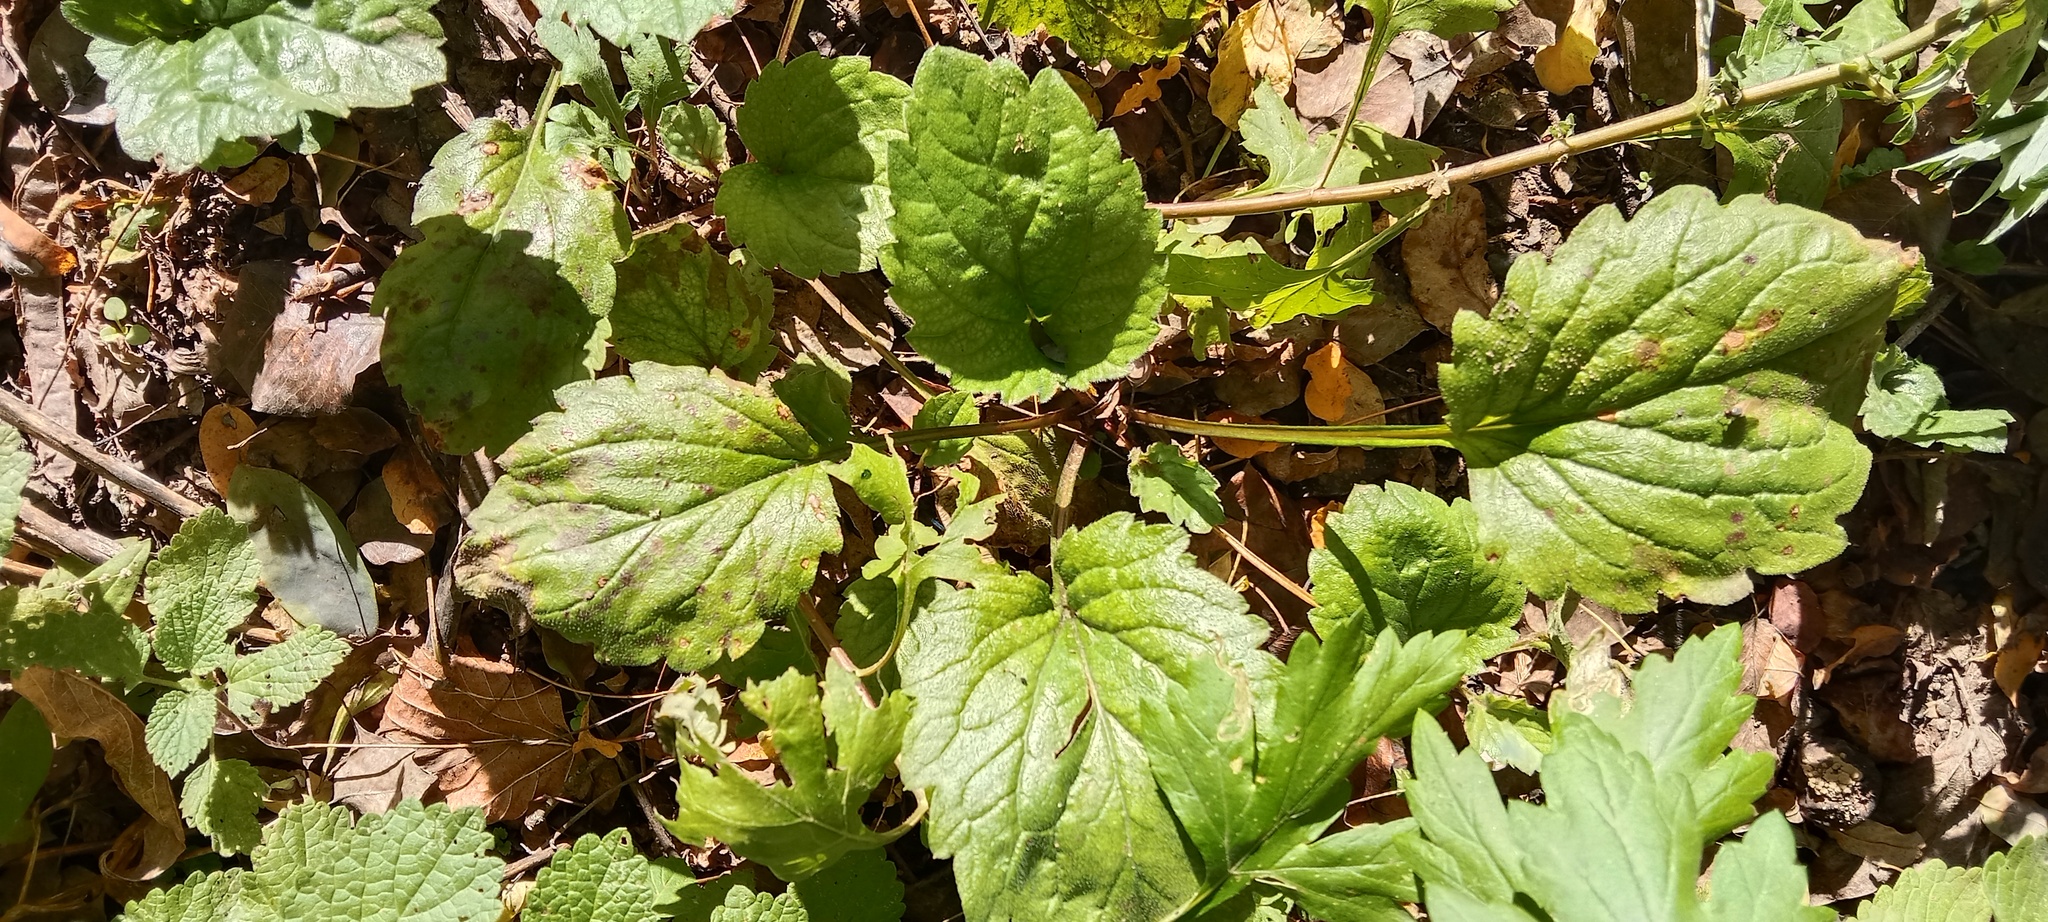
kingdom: Plantae
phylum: Tracheophyta
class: Magnoliopsida
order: Asterales
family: Asteraceae
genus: Erigeron
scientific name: Erigeron annuus
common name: Tall fleabane
